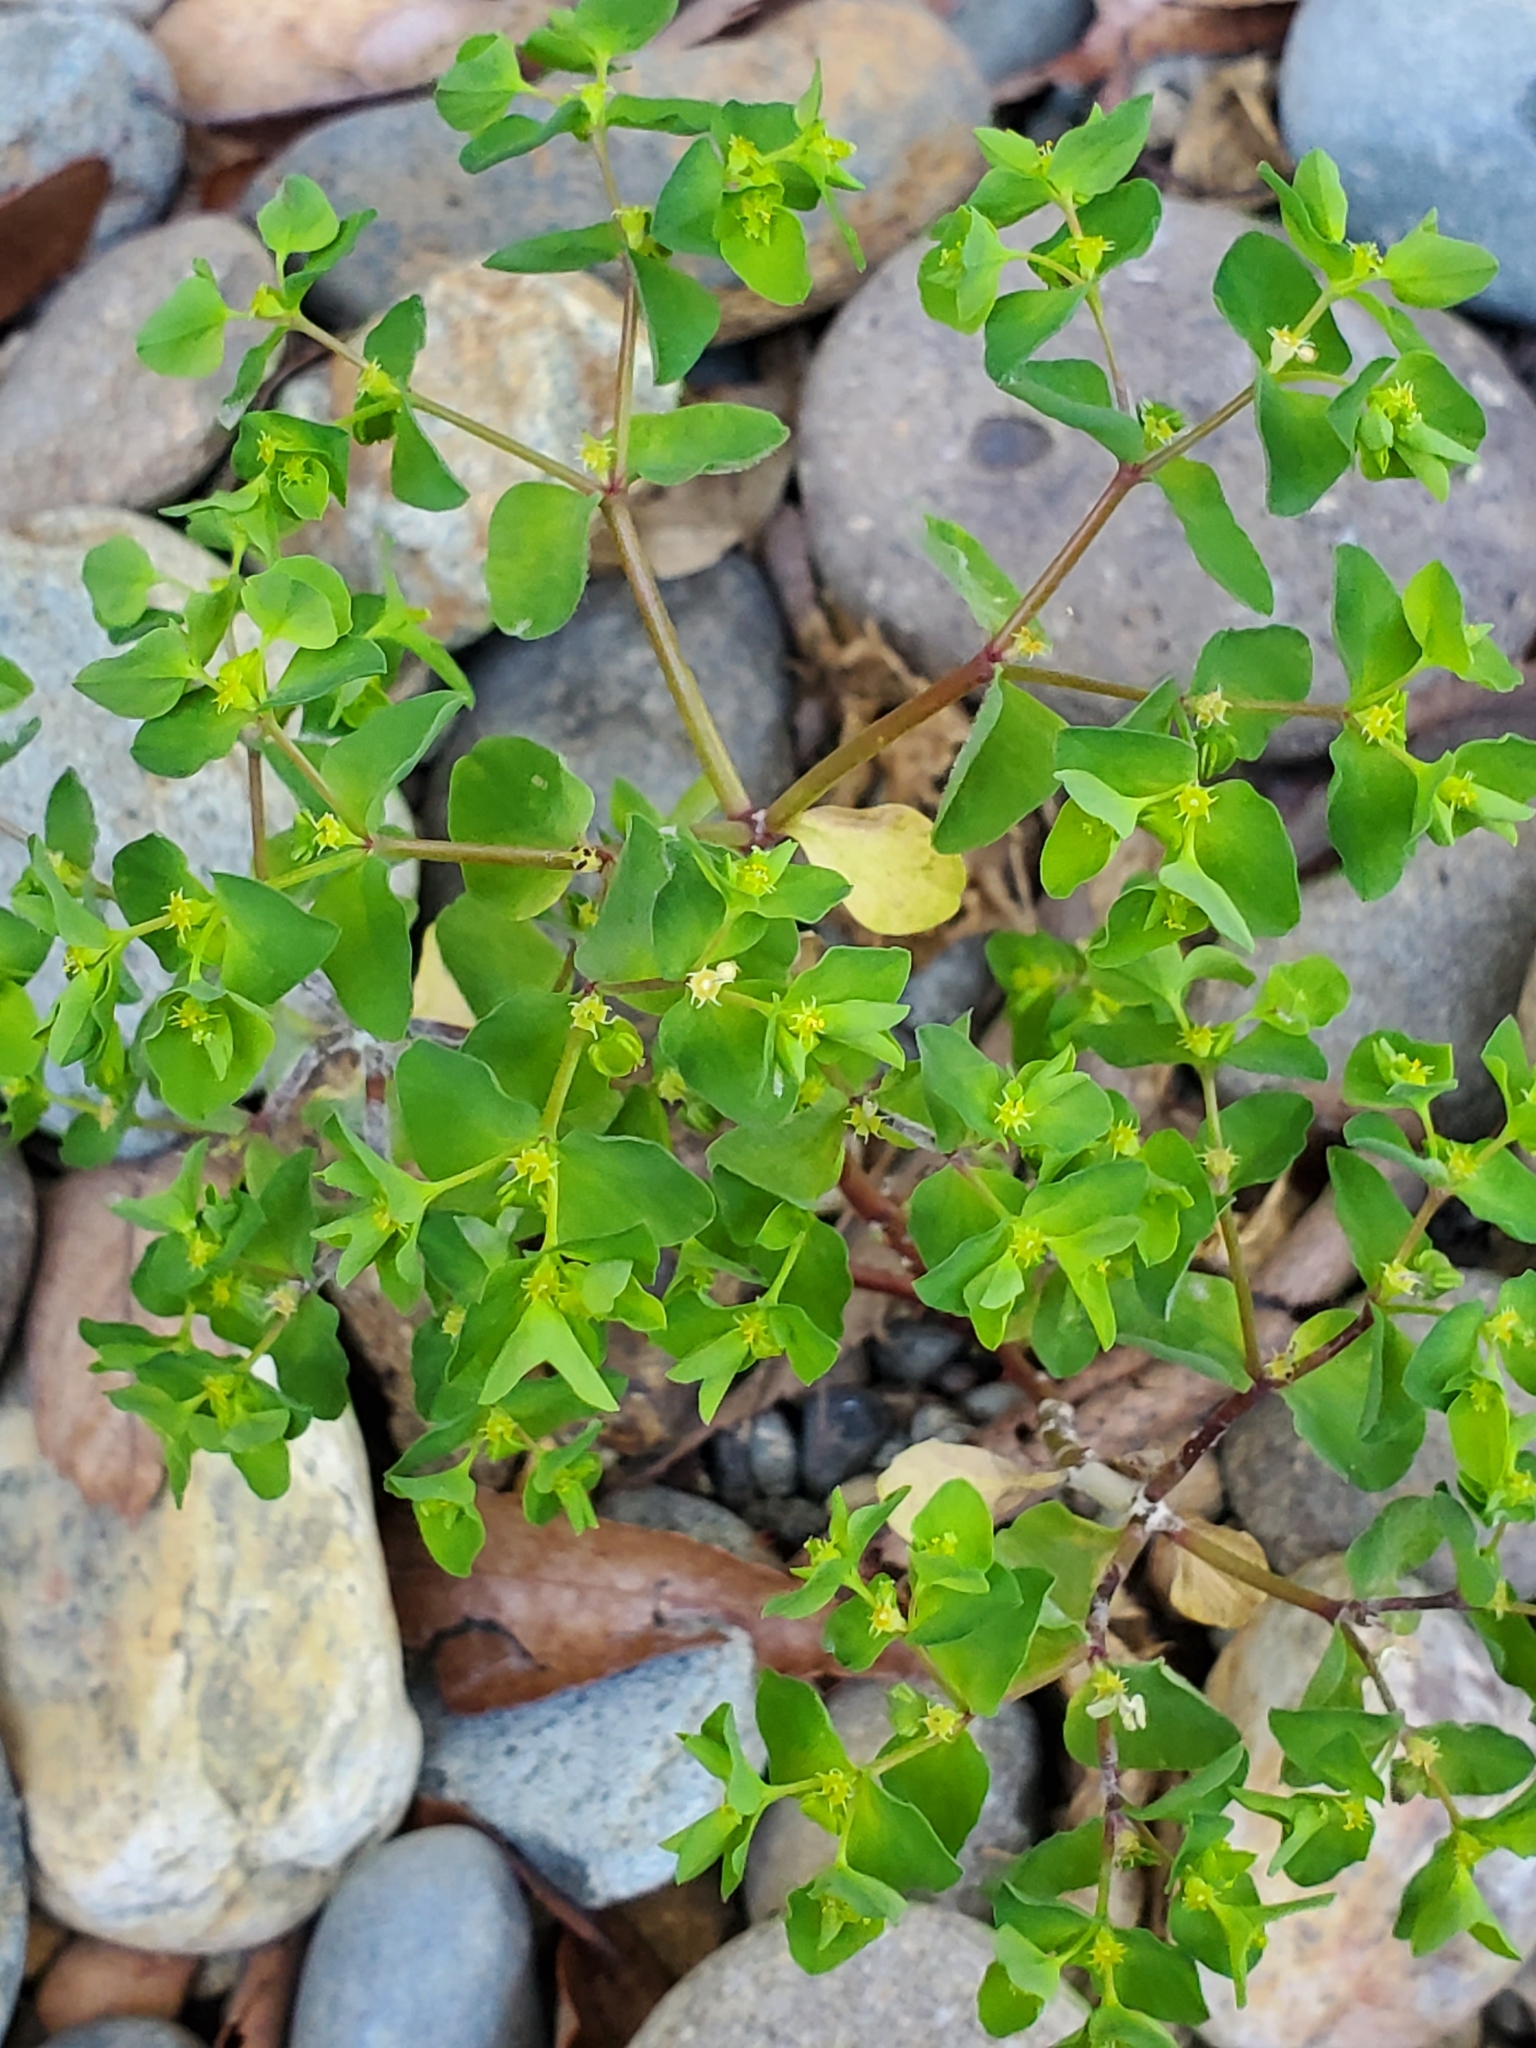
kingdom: Plantae
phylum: Tracheophyta
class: Magnoliopsida
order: Malpighiales
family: Euphorbiaceae
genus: Euphorbia
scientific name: Euphorbia peplus
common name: Petty spurge
